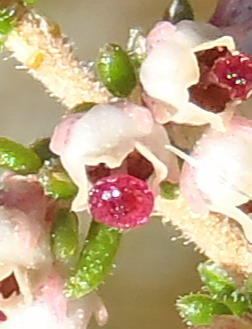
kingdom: Plantae
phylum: Tracheophyta
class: Magnoliopsida
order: Ericales
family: Ericaceae
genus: Erica
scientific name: Erica hispidula
